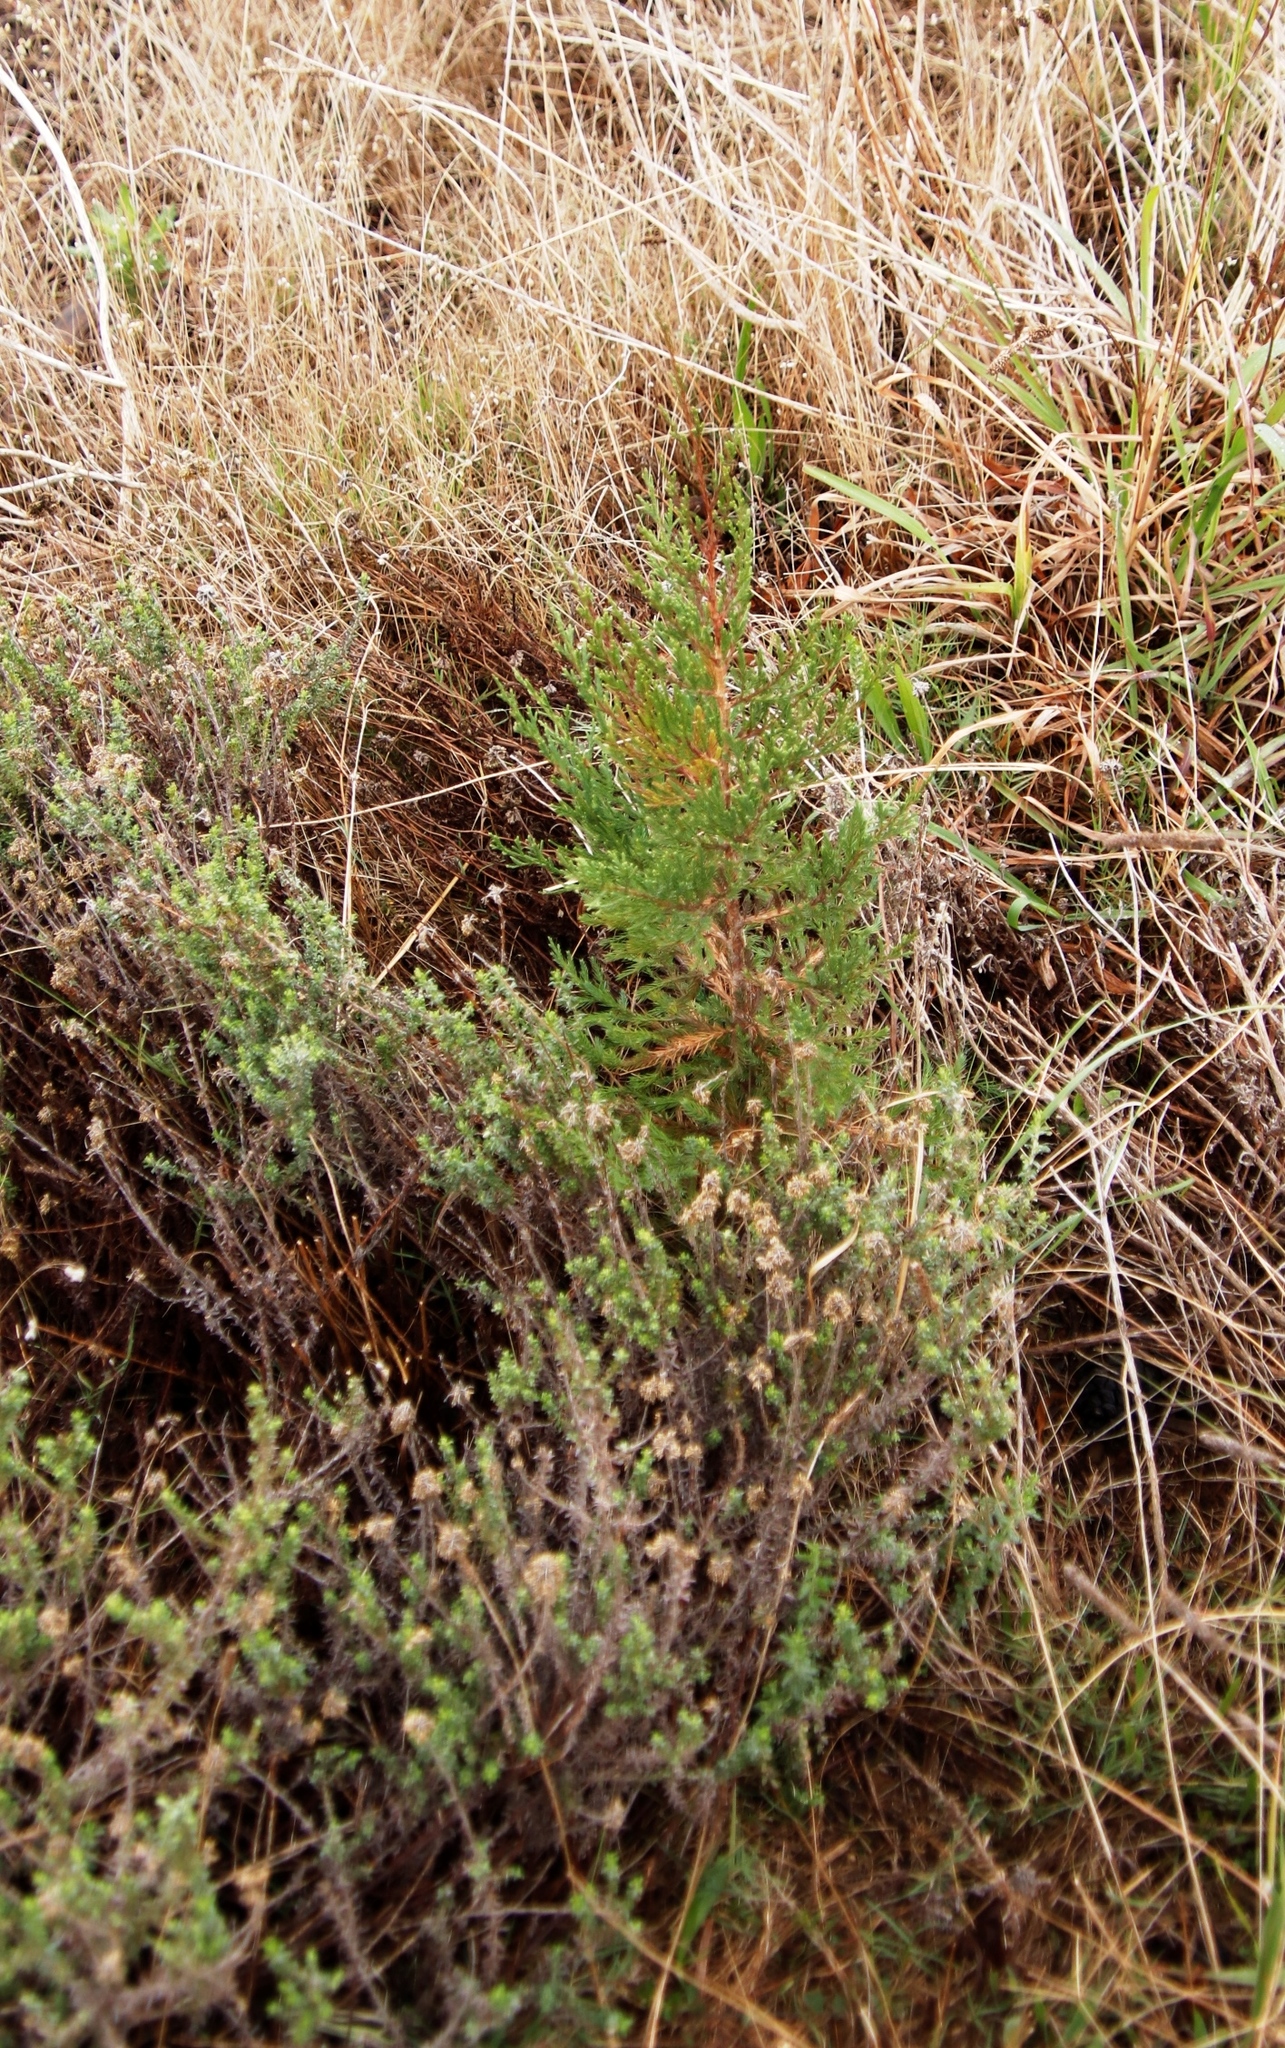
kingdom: Plantae
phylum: Tracheophyta
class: Pinopsida
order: Pinales
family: Cupressaceae
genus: Cupressus
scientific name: Cupressus lusitanica
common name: Mexican cypress
